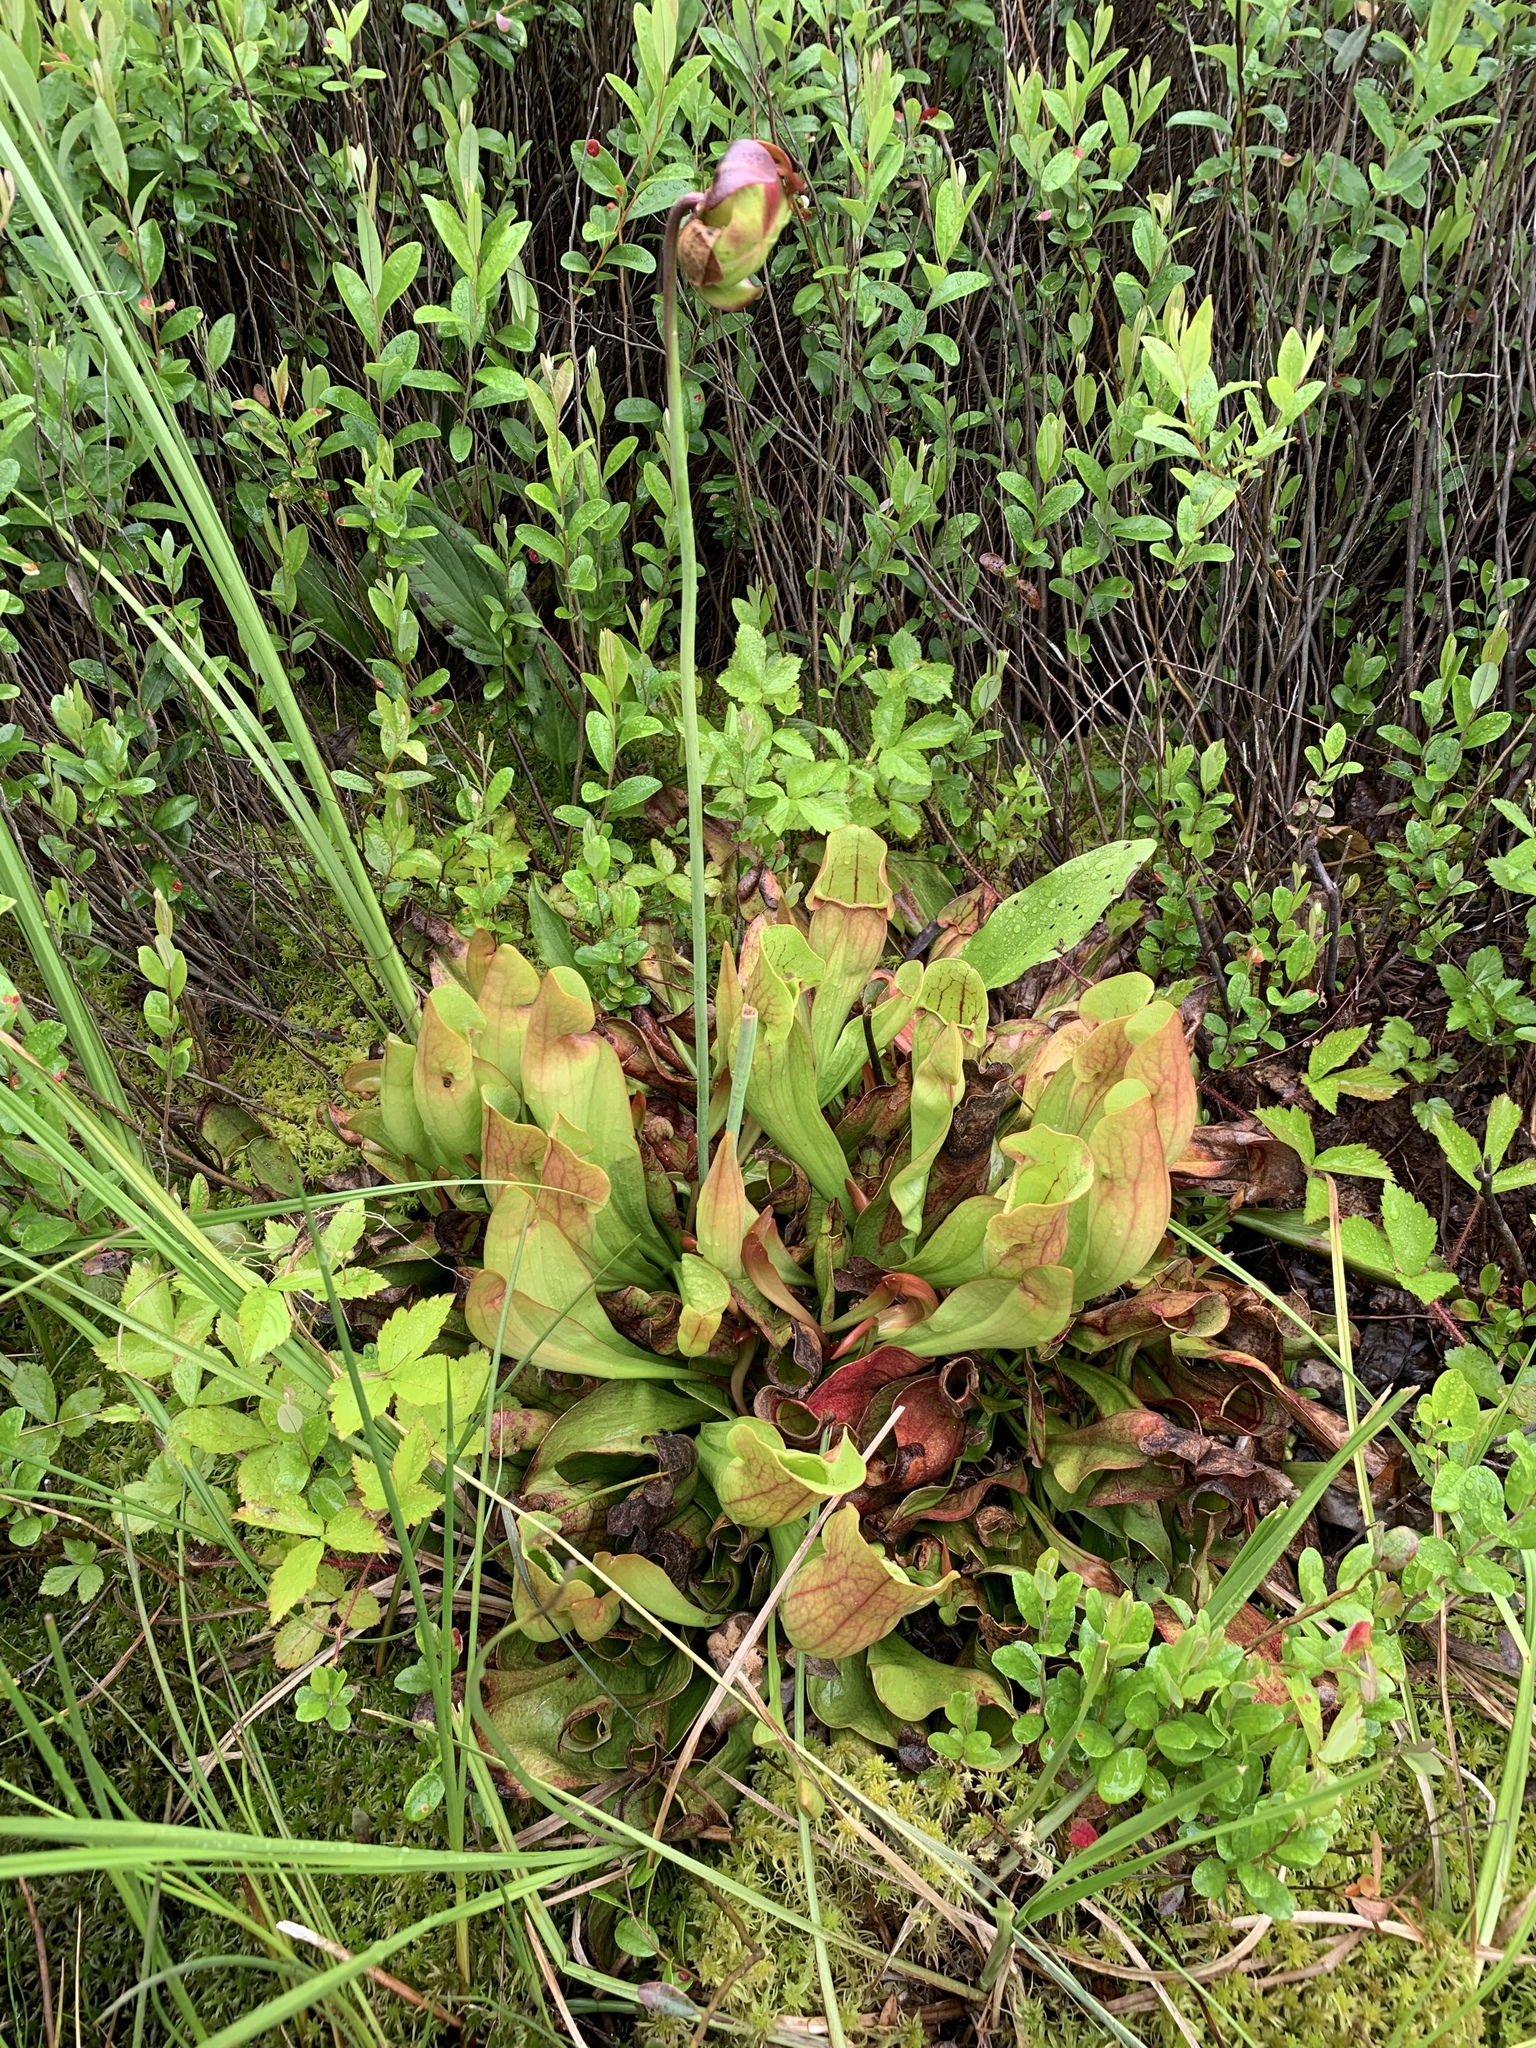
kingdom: Plantae
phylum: Tracheophyta
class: Magnoliopsida
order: Ericales
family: Sarraceniaceae
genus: Sarracenia
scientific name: Sarracenia purpurea
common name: Pitcherplant
